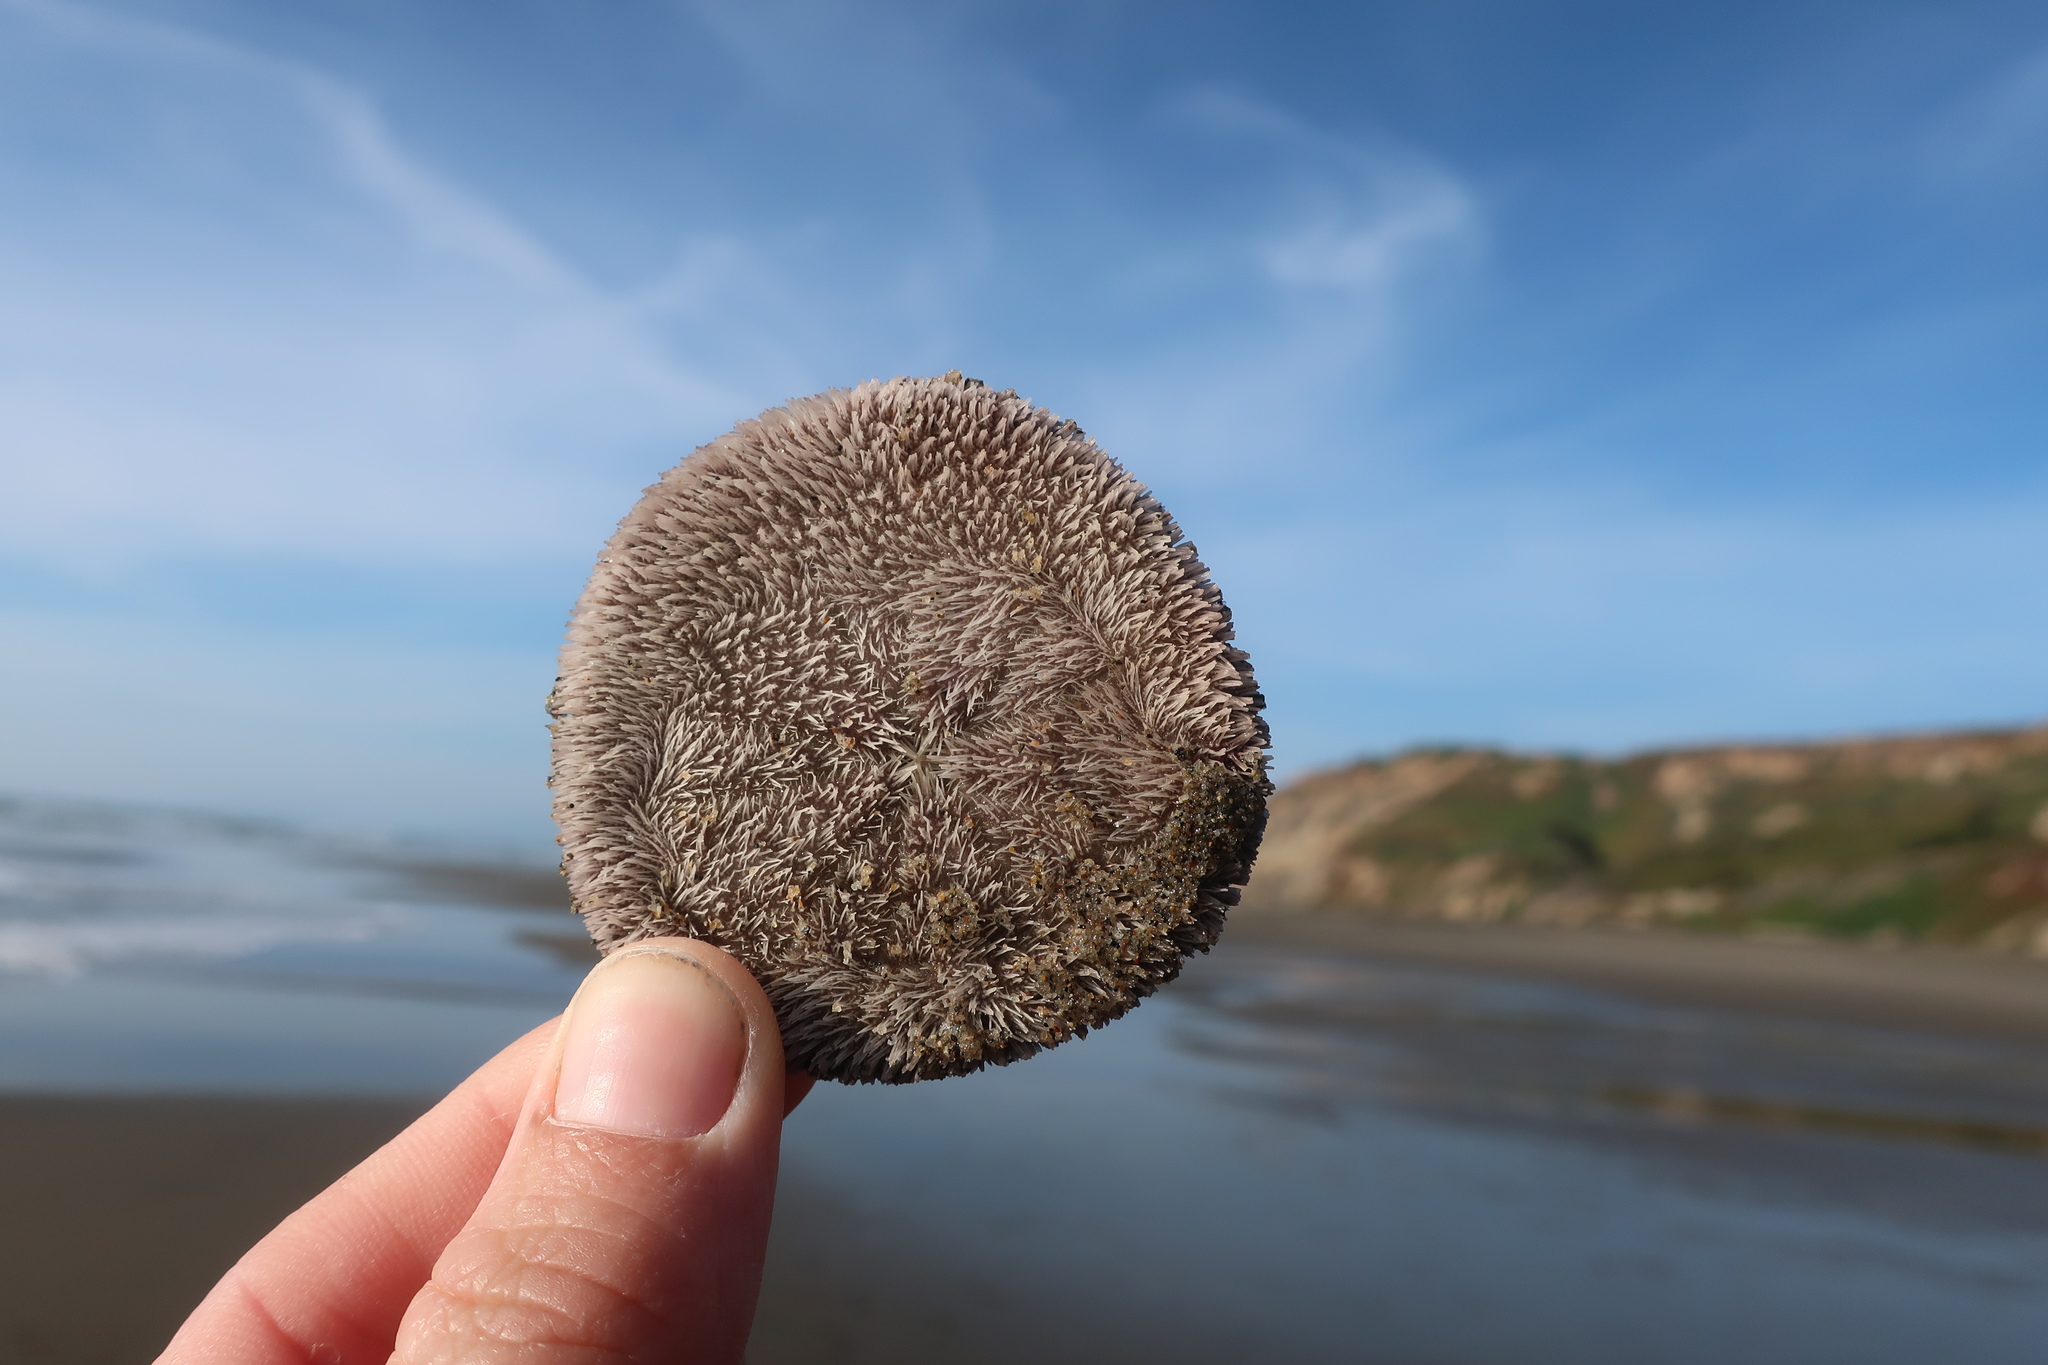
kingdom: Animalia
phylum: Echinodermata
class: Echinoidea
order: Echinolampadacea
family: Dendrasteridae
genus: Dendraster
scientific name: Dendraster excentricus
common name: Eccentric sand dollar sea urchin
